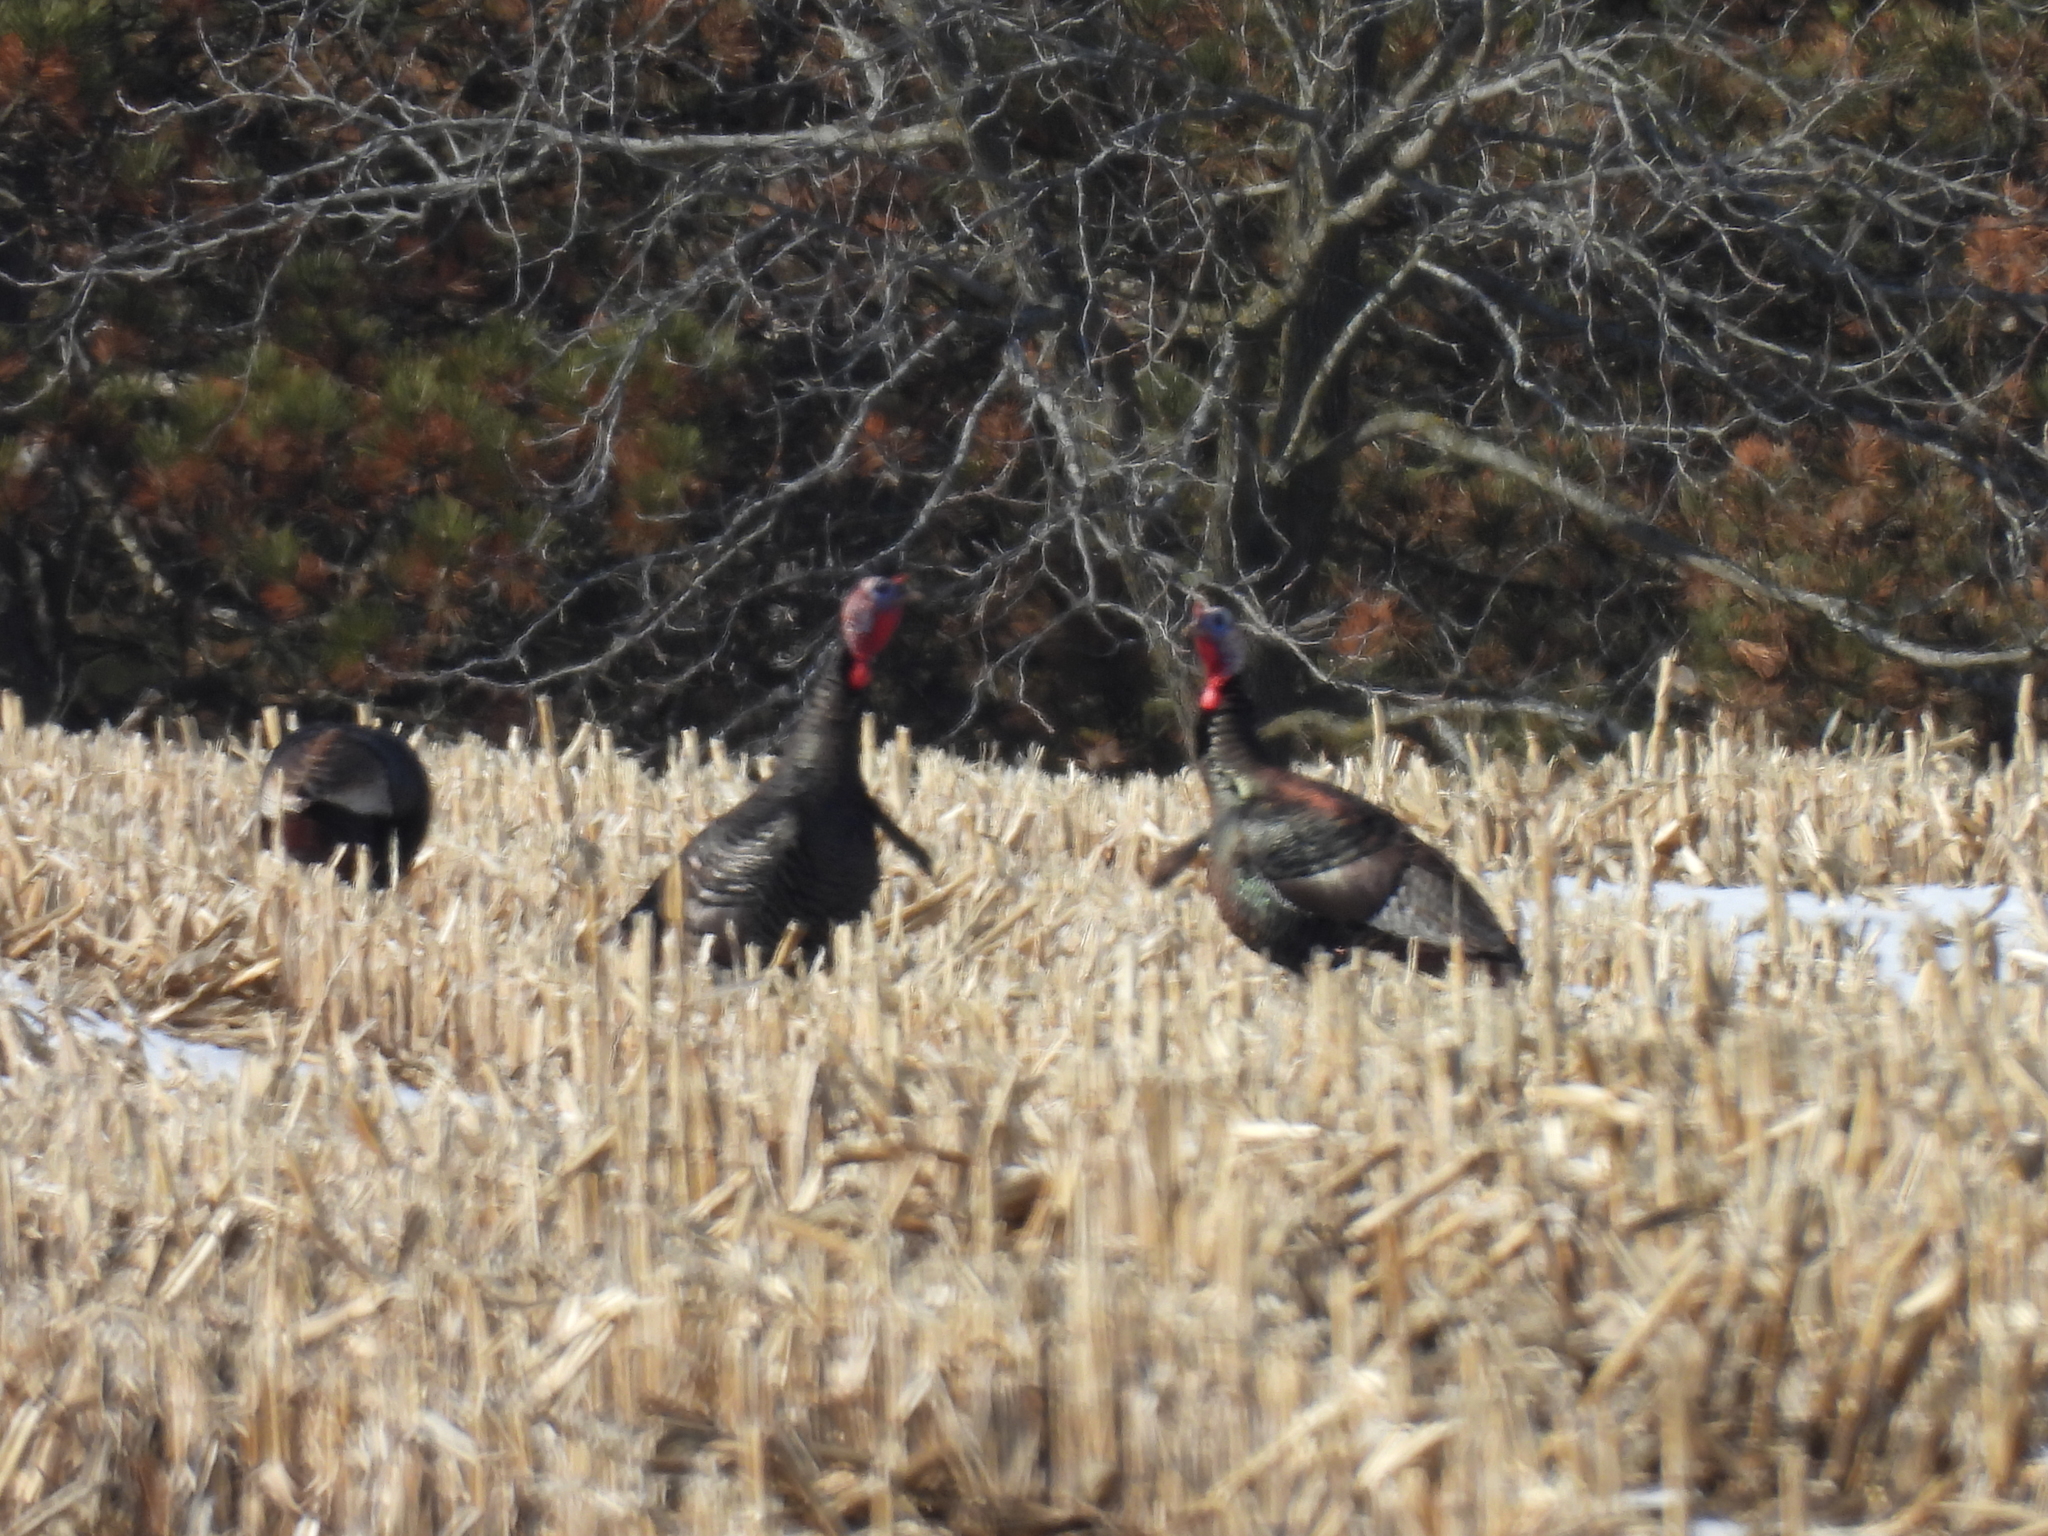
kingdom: Animalia
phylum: Chordata
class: Aves
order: Galliformes
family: Phasianidae
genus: Meleagris
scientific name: Meleagris gallopavo
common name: Wild turkey
